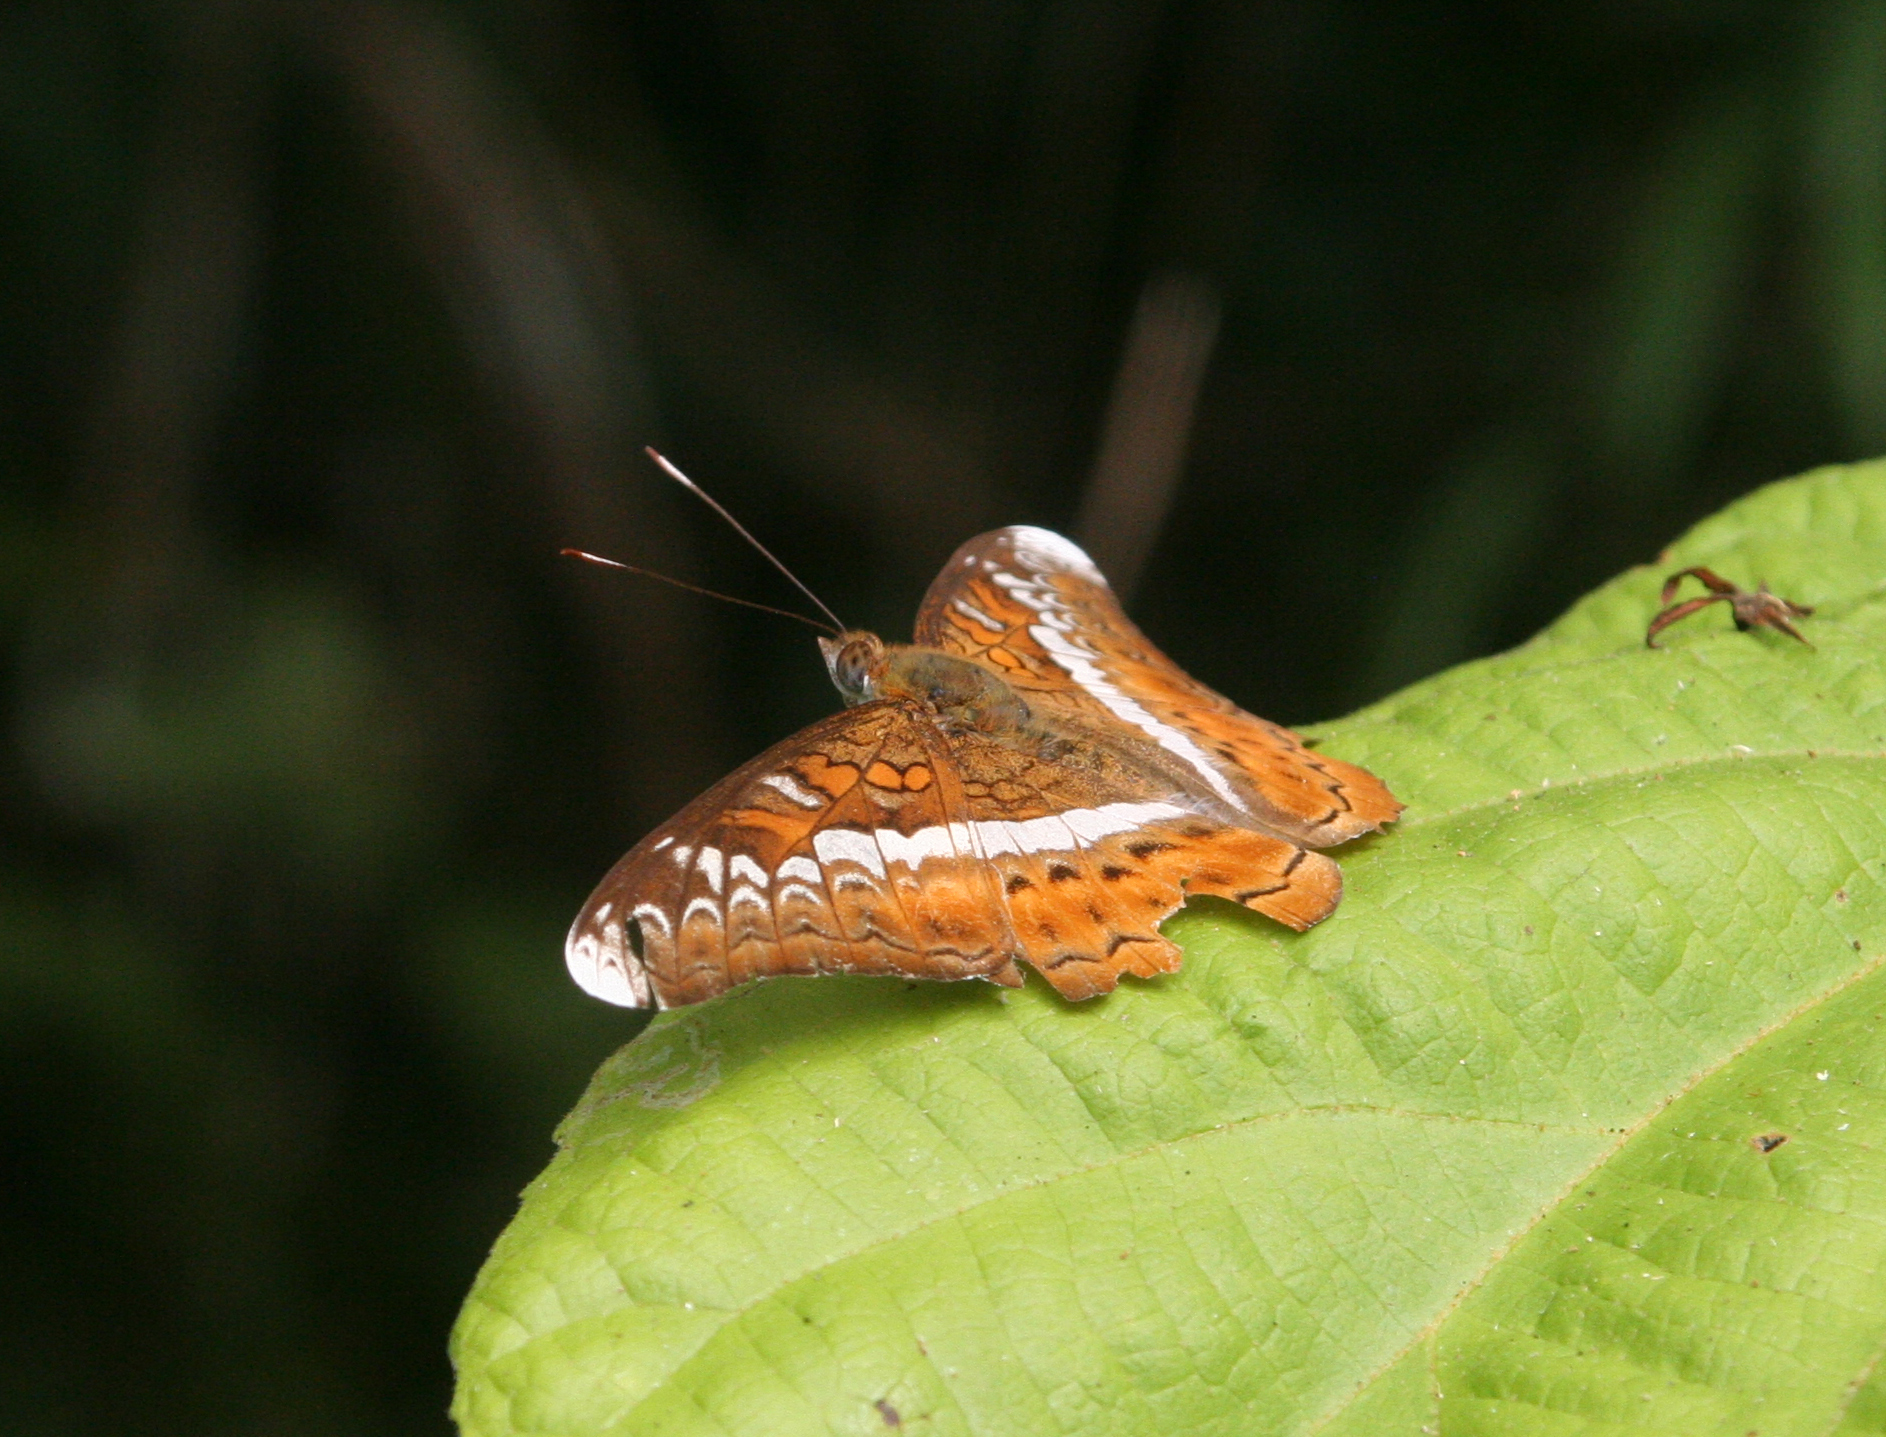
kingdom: Animalia
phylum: Arthropoda
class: Insecta
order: Lepidoptera
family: Nymphalidae
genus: Lebadea
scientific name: Lebadea martha
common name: Knight
